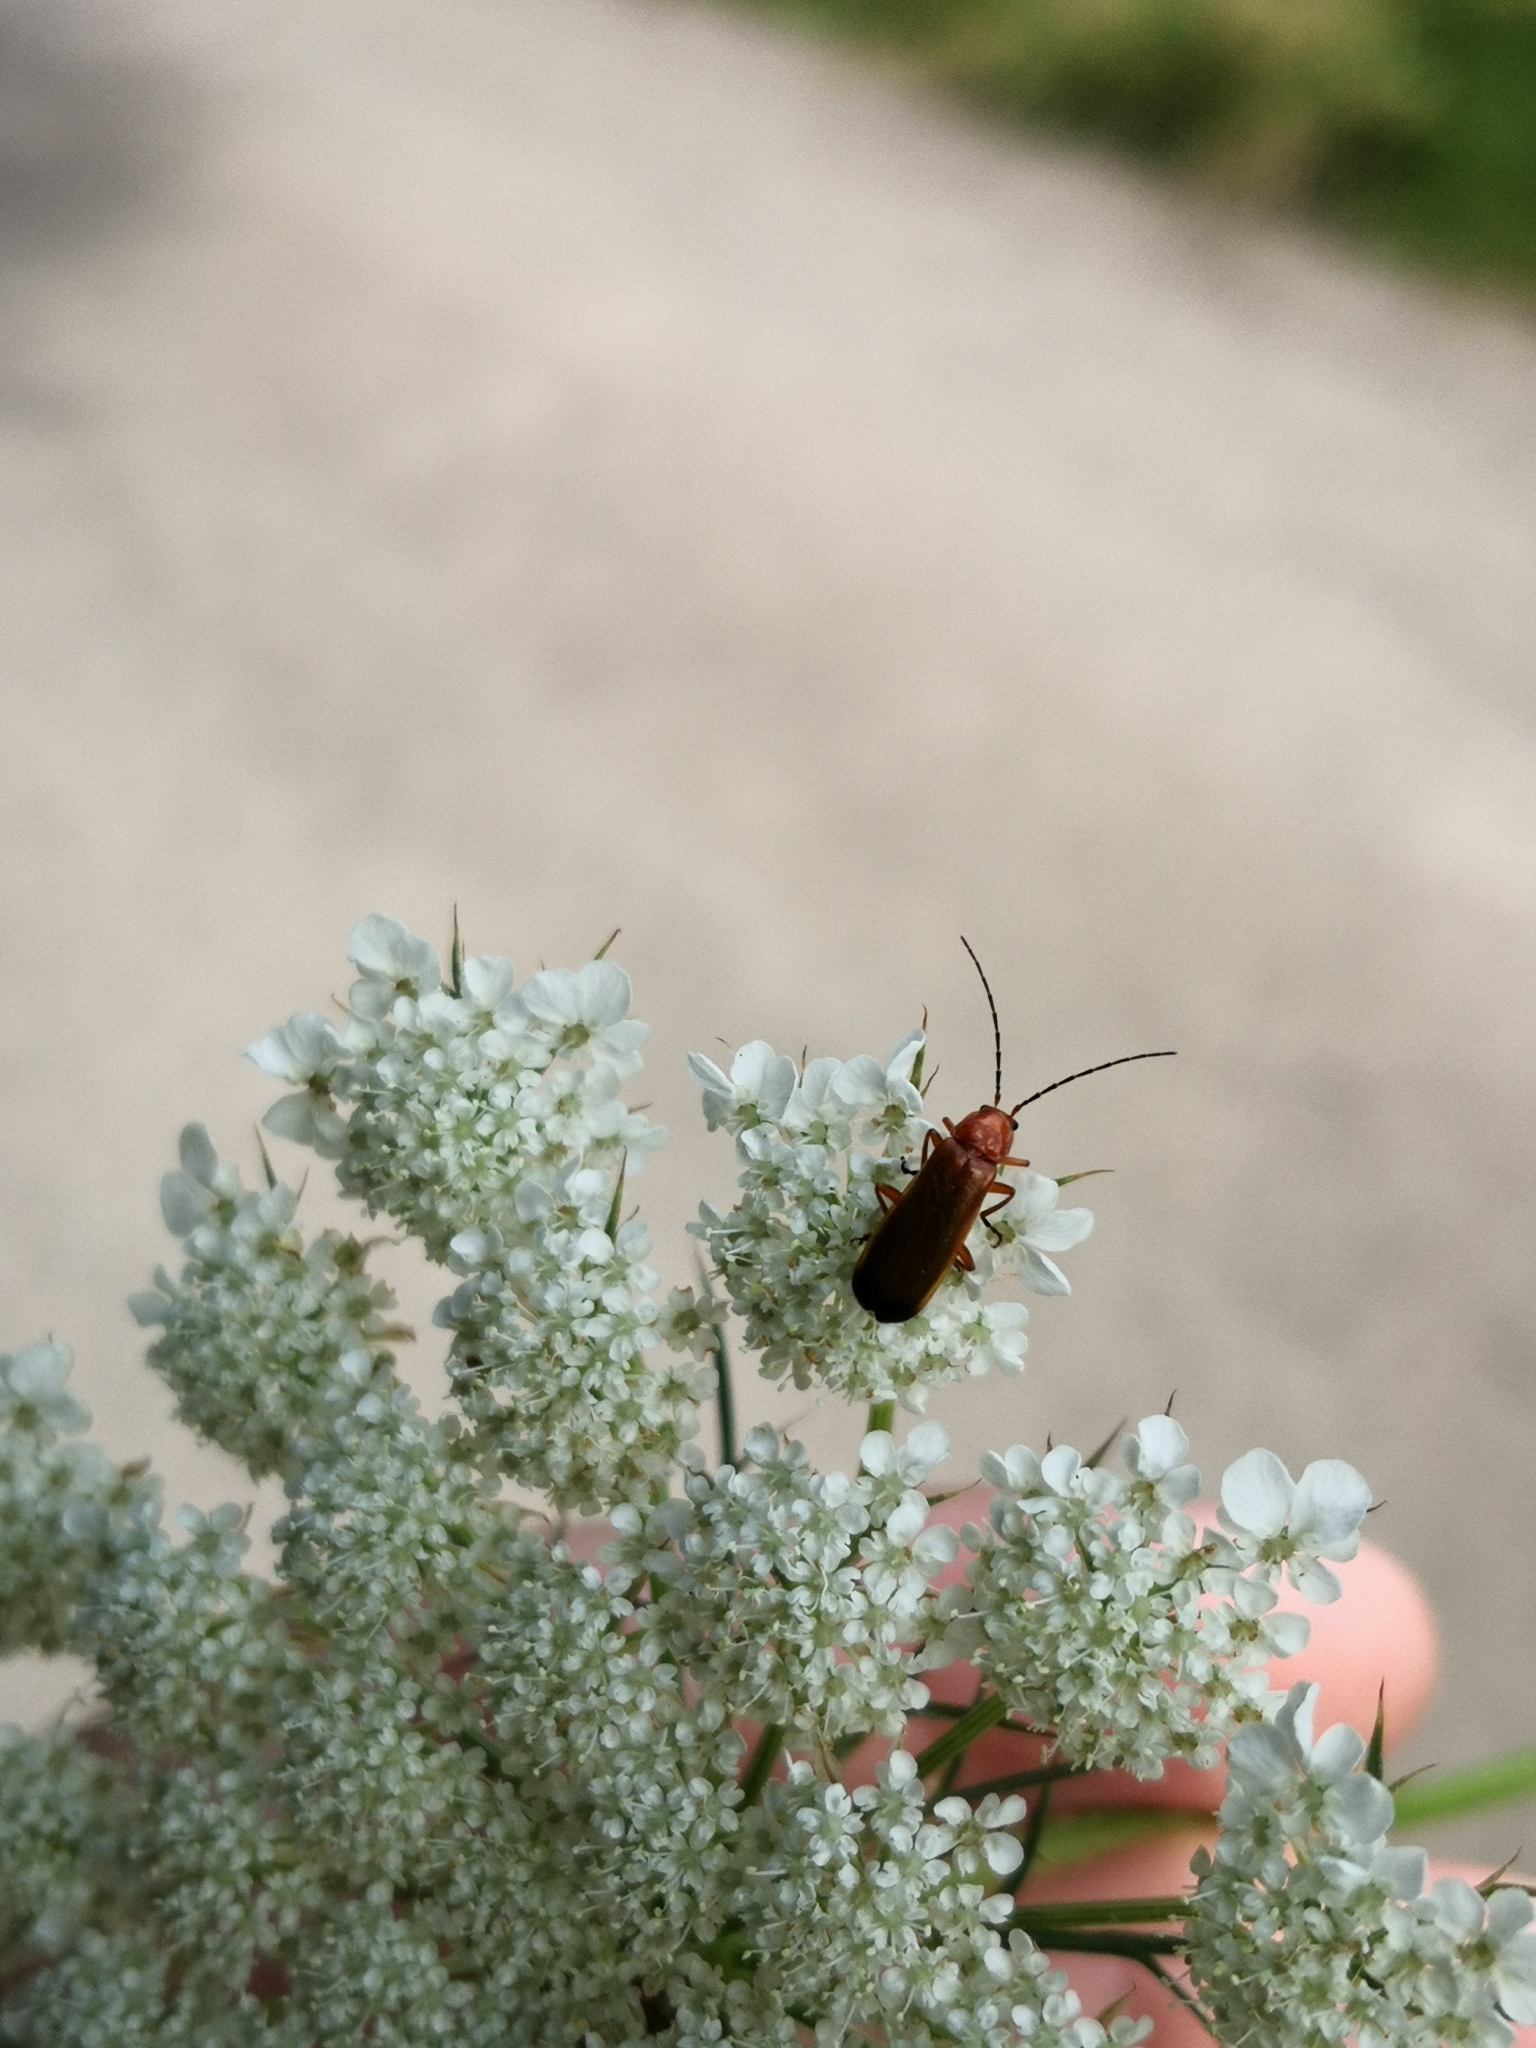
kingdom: Animalia
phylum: Arthropoda
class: Insecta
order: Coleoptera
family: Cantharidae
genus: Rhagonycha
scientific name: Rhagonycha fulva
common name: Common red soldier beetle
